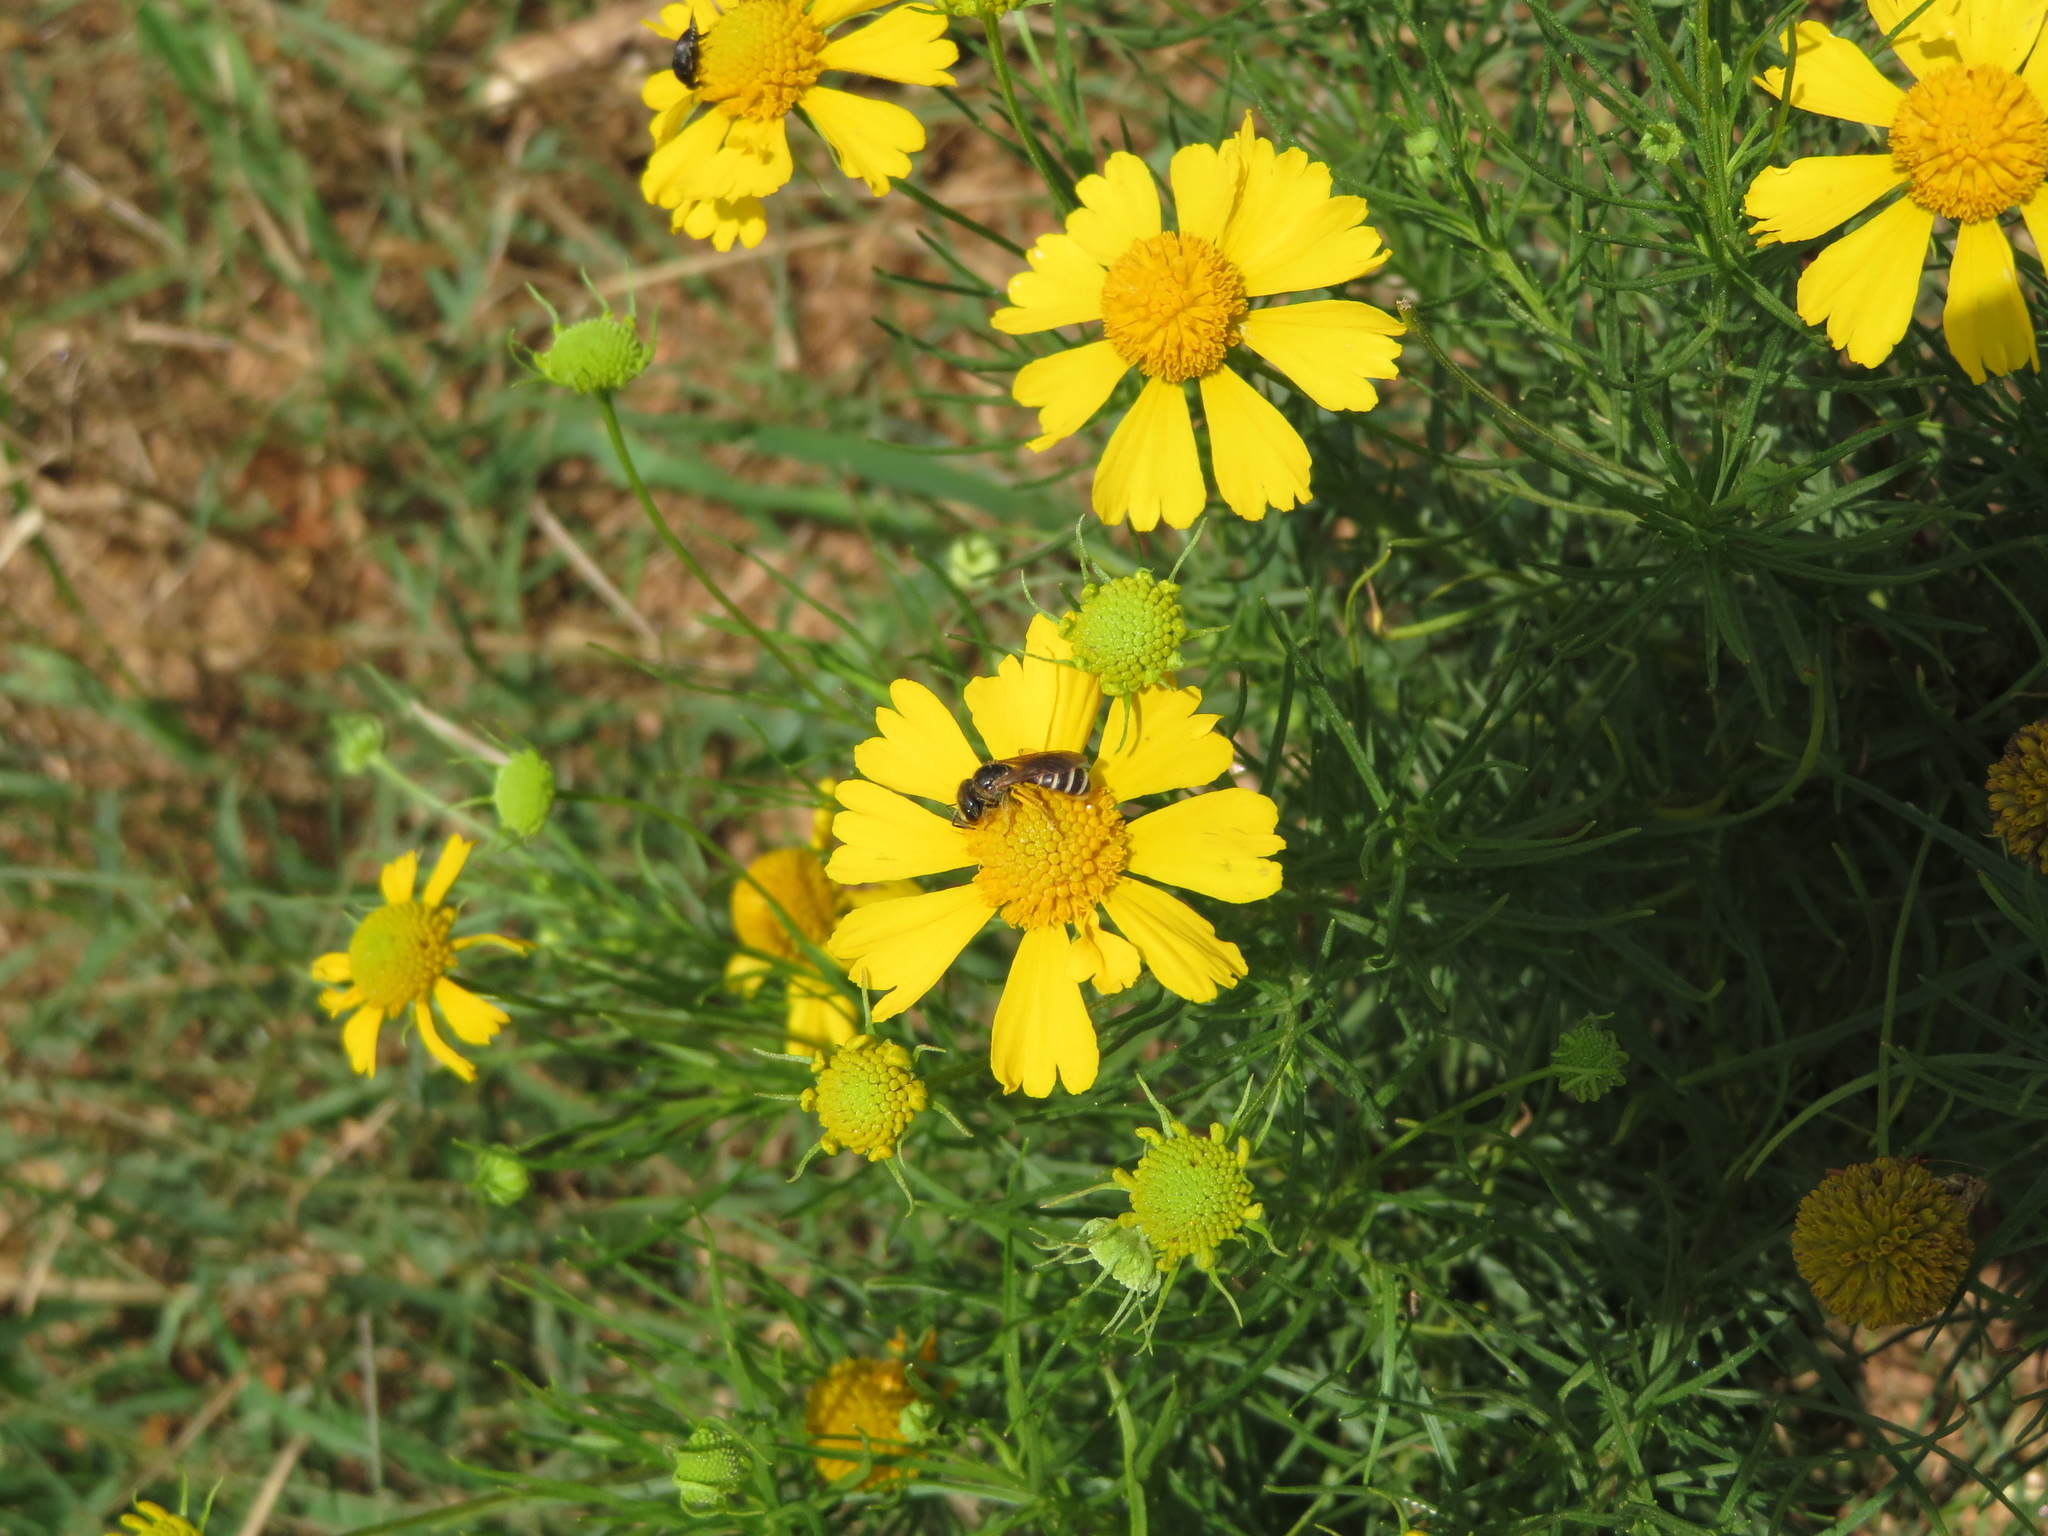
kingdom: Plantae
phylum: Tracheophyta
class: Magnoliopsida
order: Asterales
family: Asteraceae
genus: Helenium
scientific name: Helenium amarum
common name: Bitter sneezeweed
